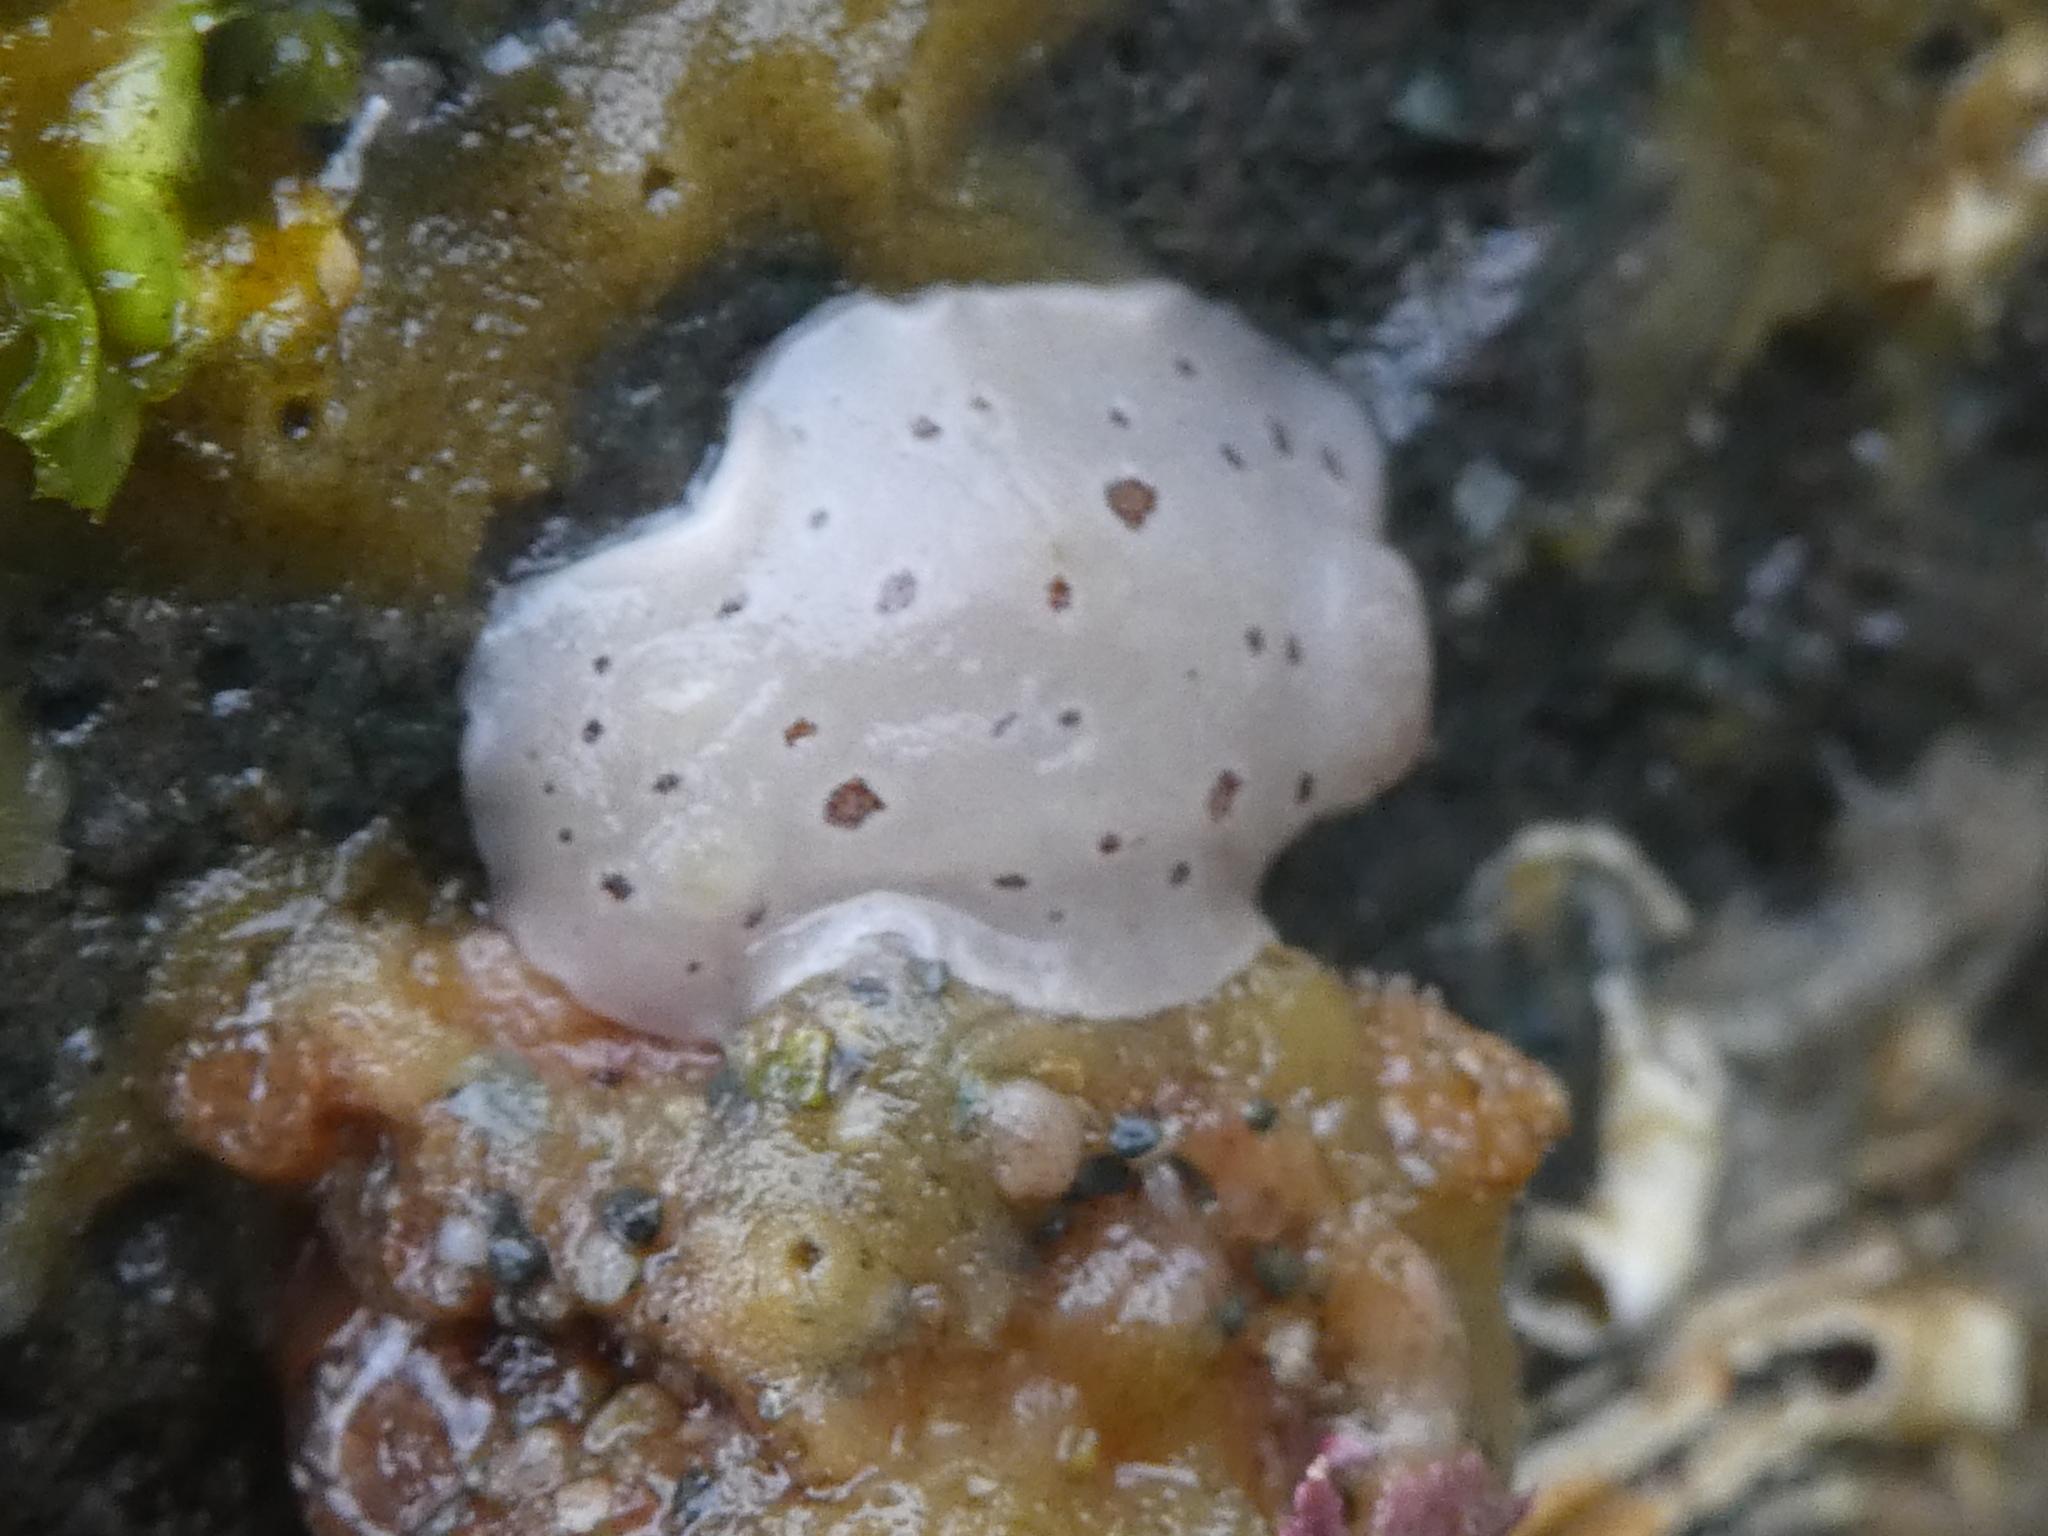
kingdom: Animalia
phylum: Mollusca
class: Gastropoda
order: Nudibranchia
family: Discodorididae
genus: Diaulula
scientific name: Diaulula odonoghuei
